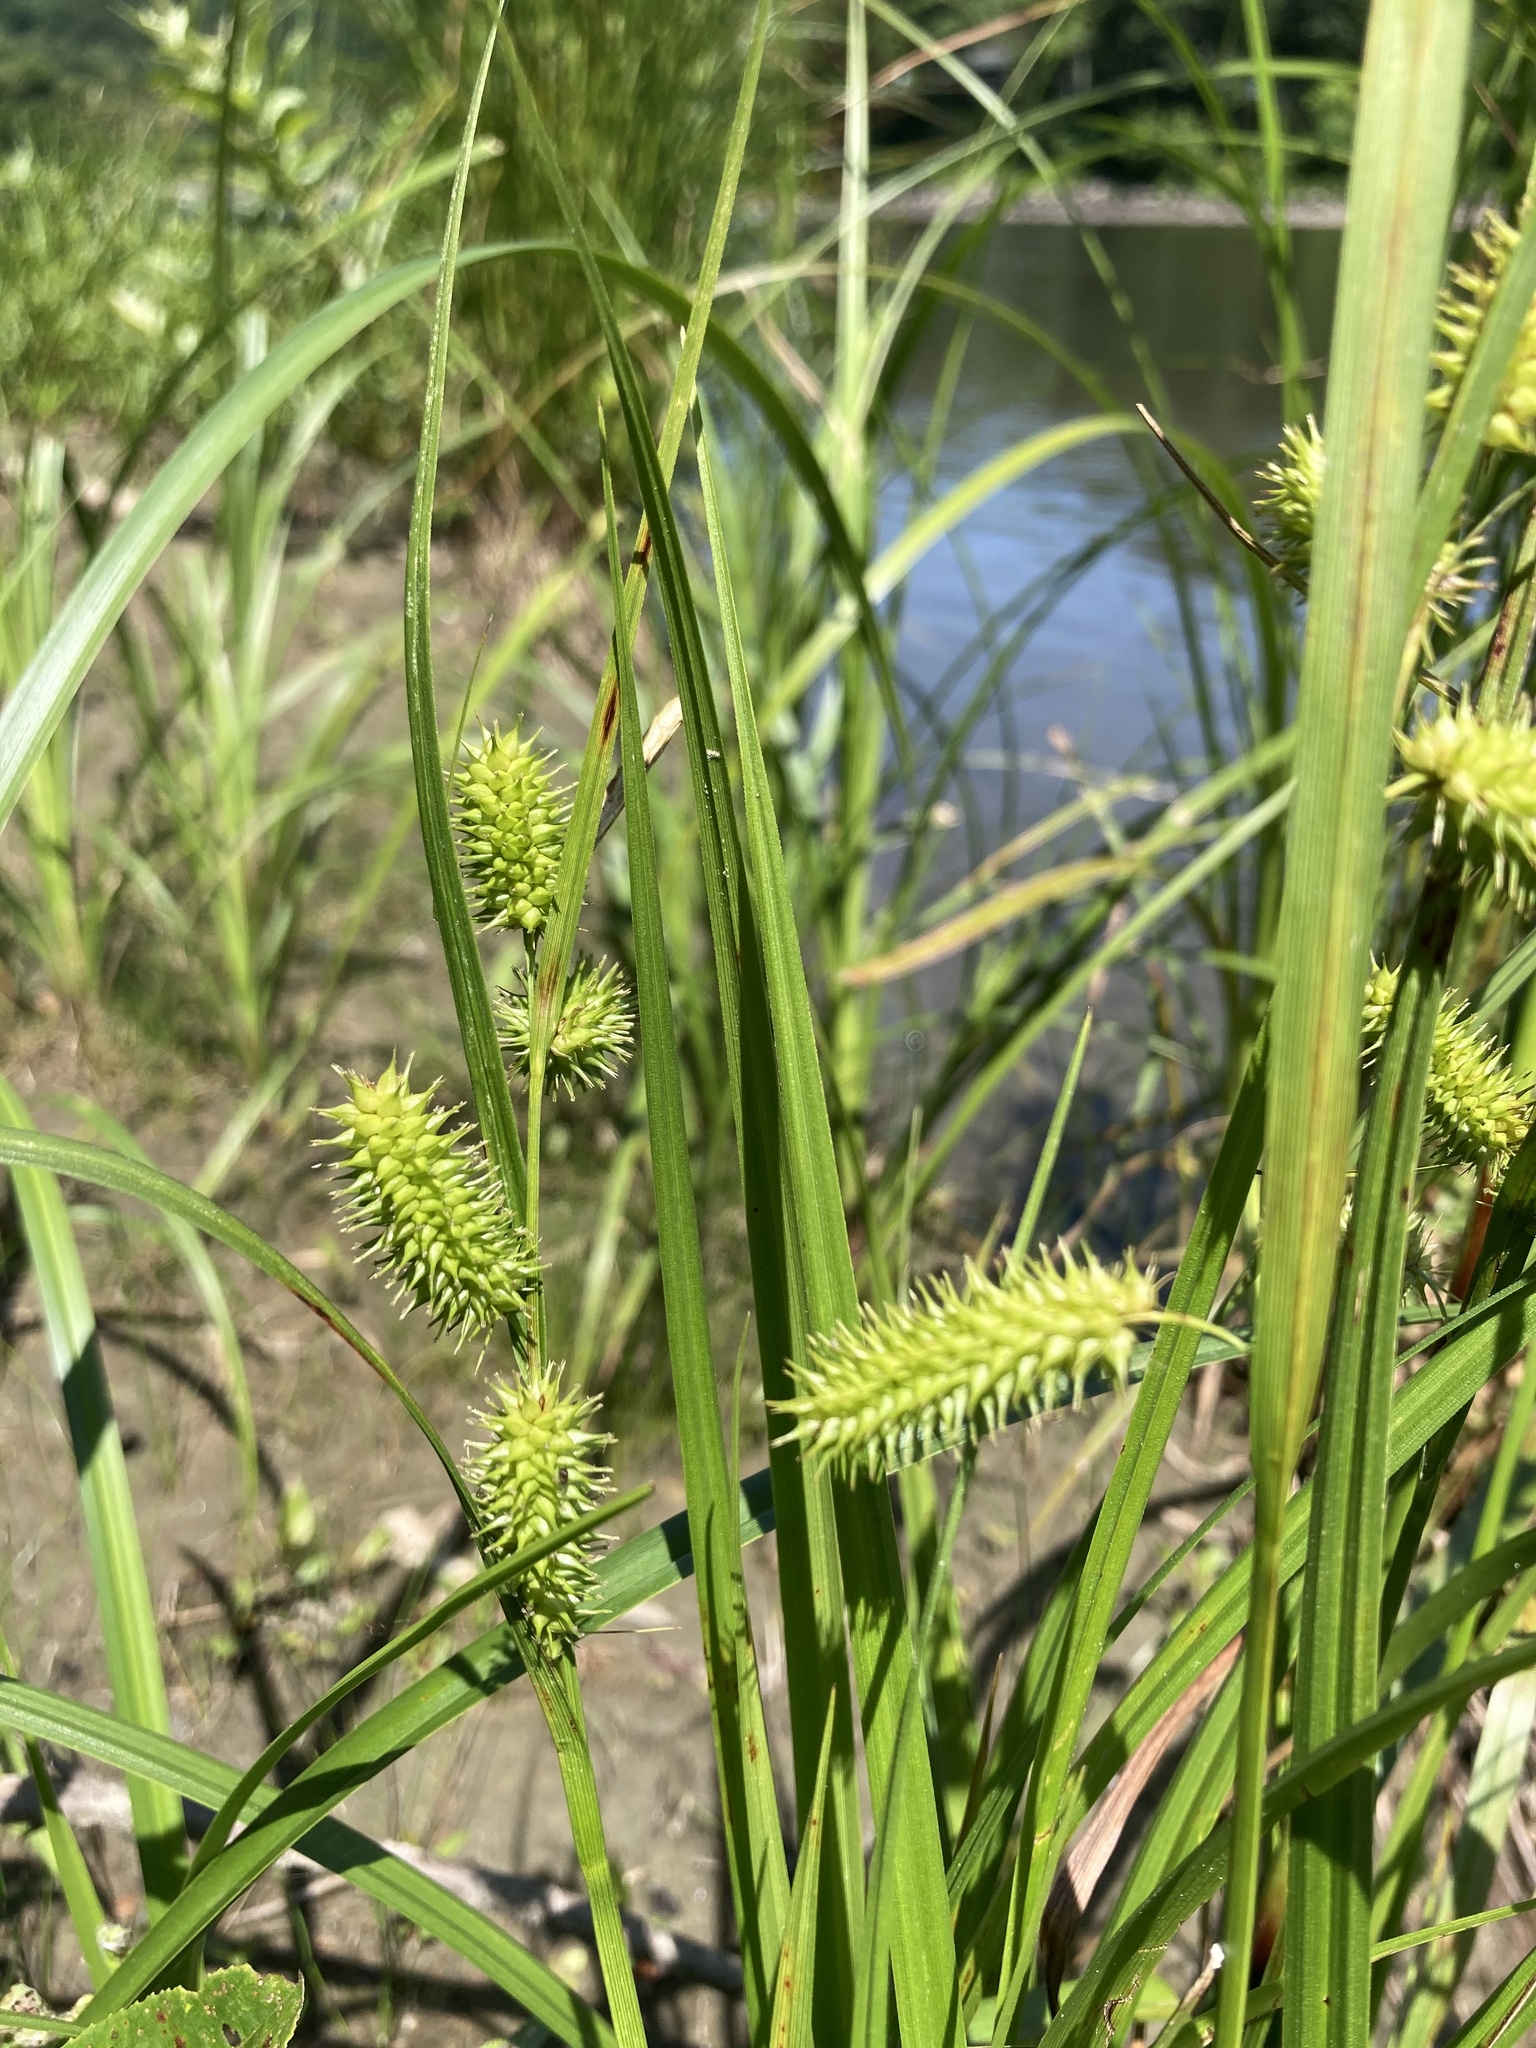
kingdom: Plantae
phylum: Tracheophyta
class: Liliopsida
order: Poales
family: Cyperaceae
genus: Carex
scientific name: Carex hystericina
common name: Bottlebrush sedge
